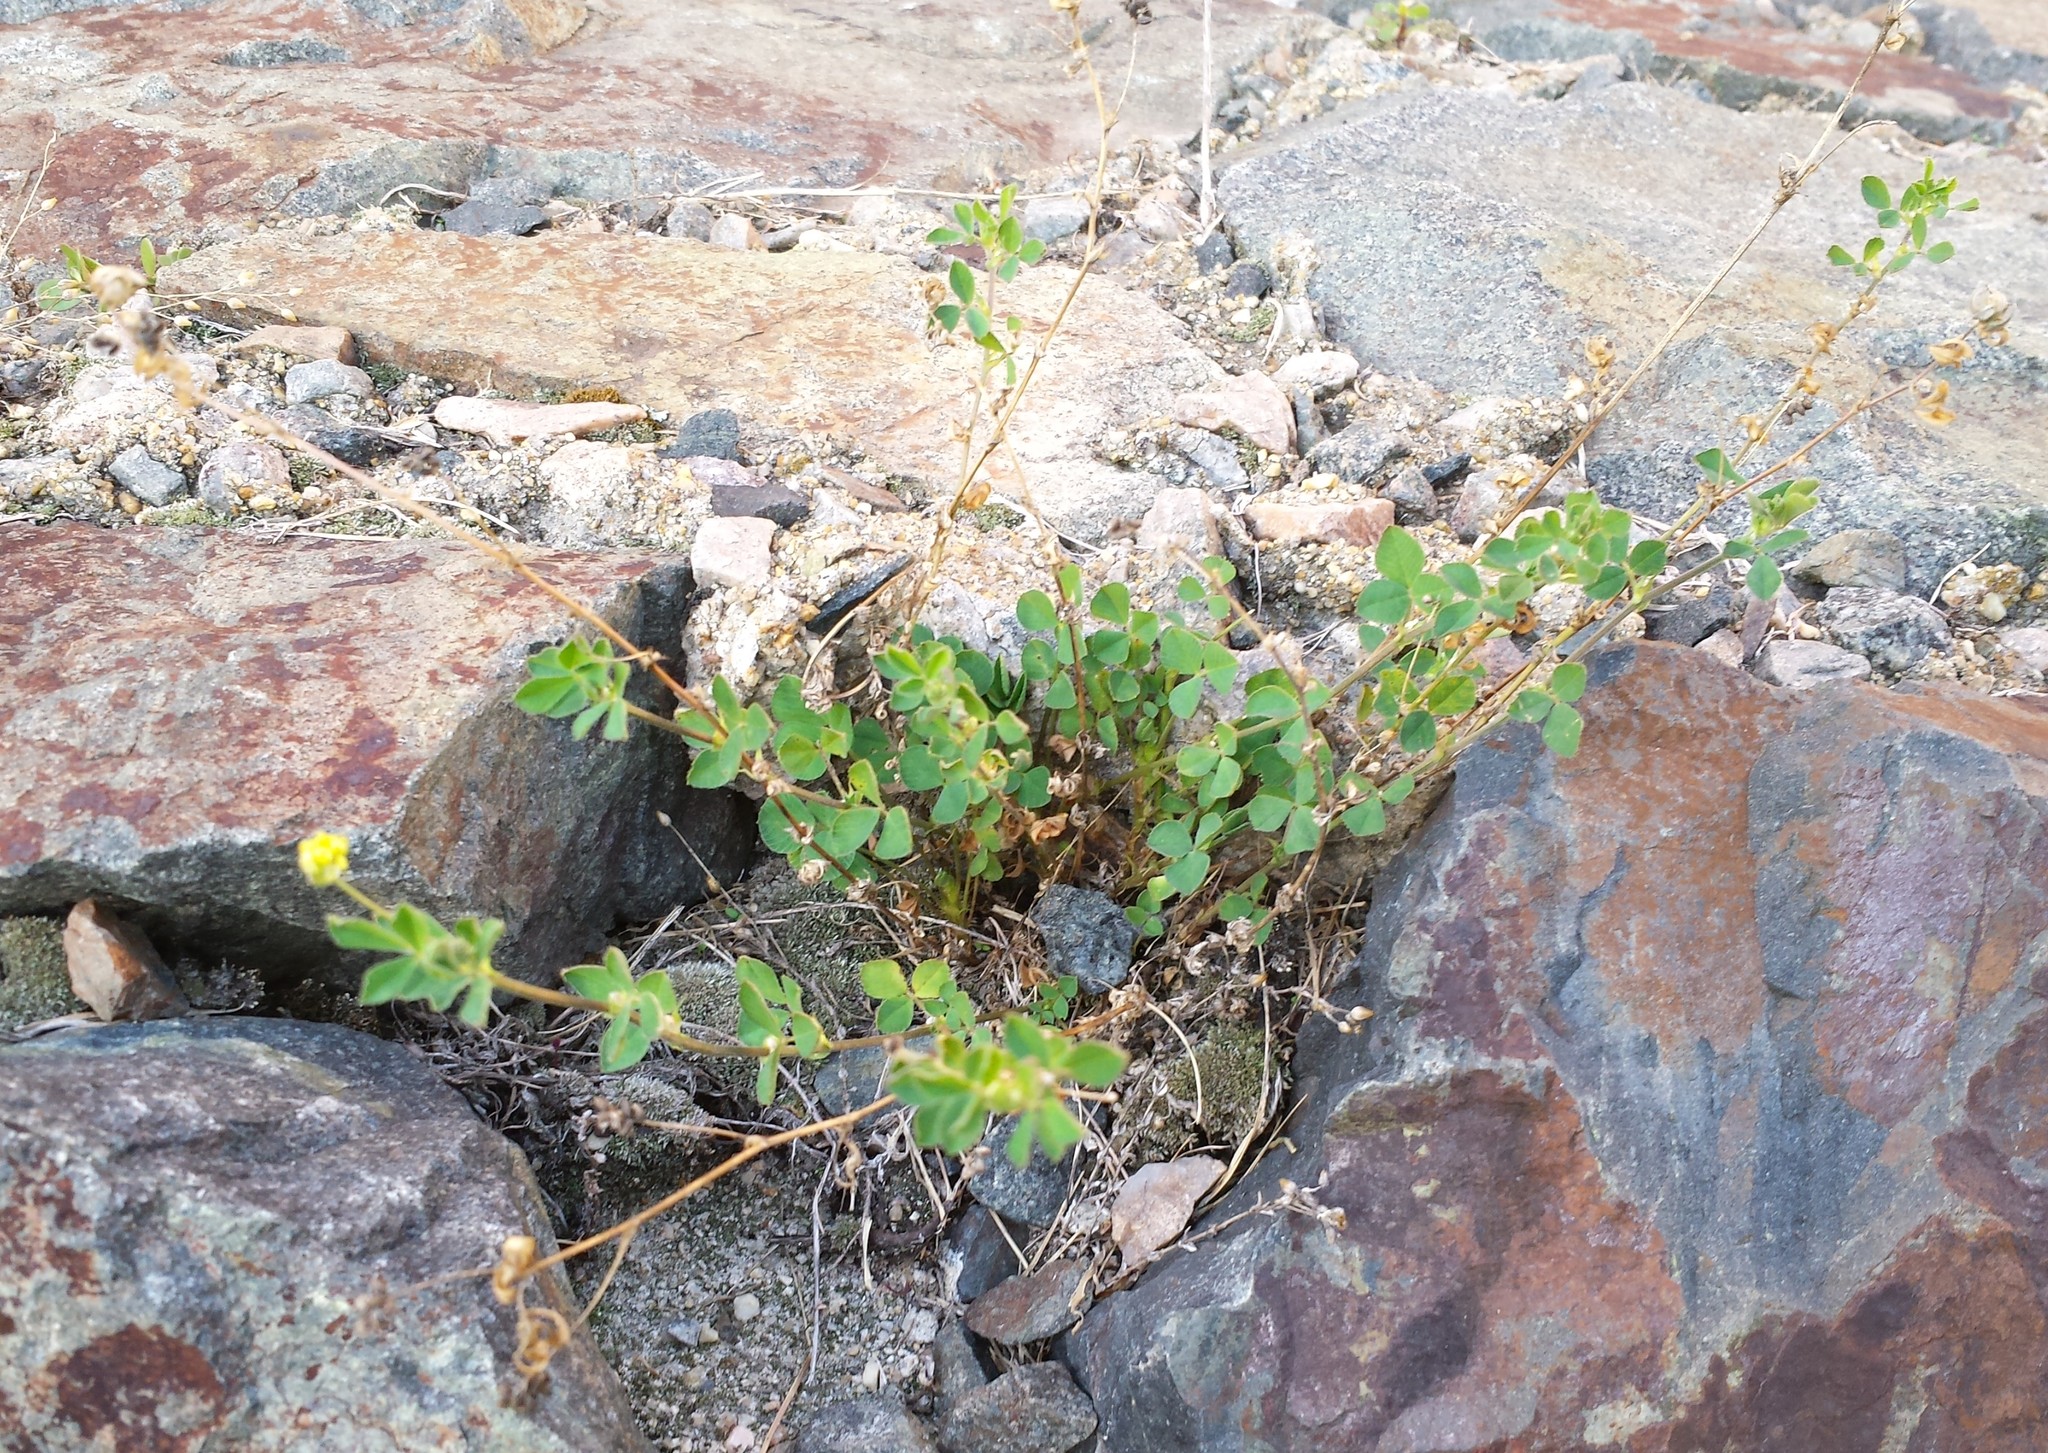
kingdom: Plantae
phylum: Tracheophyta
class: Magnoliopsida
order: Fabales
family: Fabaceae
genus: Medicago
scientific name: Medicago lupulina
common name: Black medick
